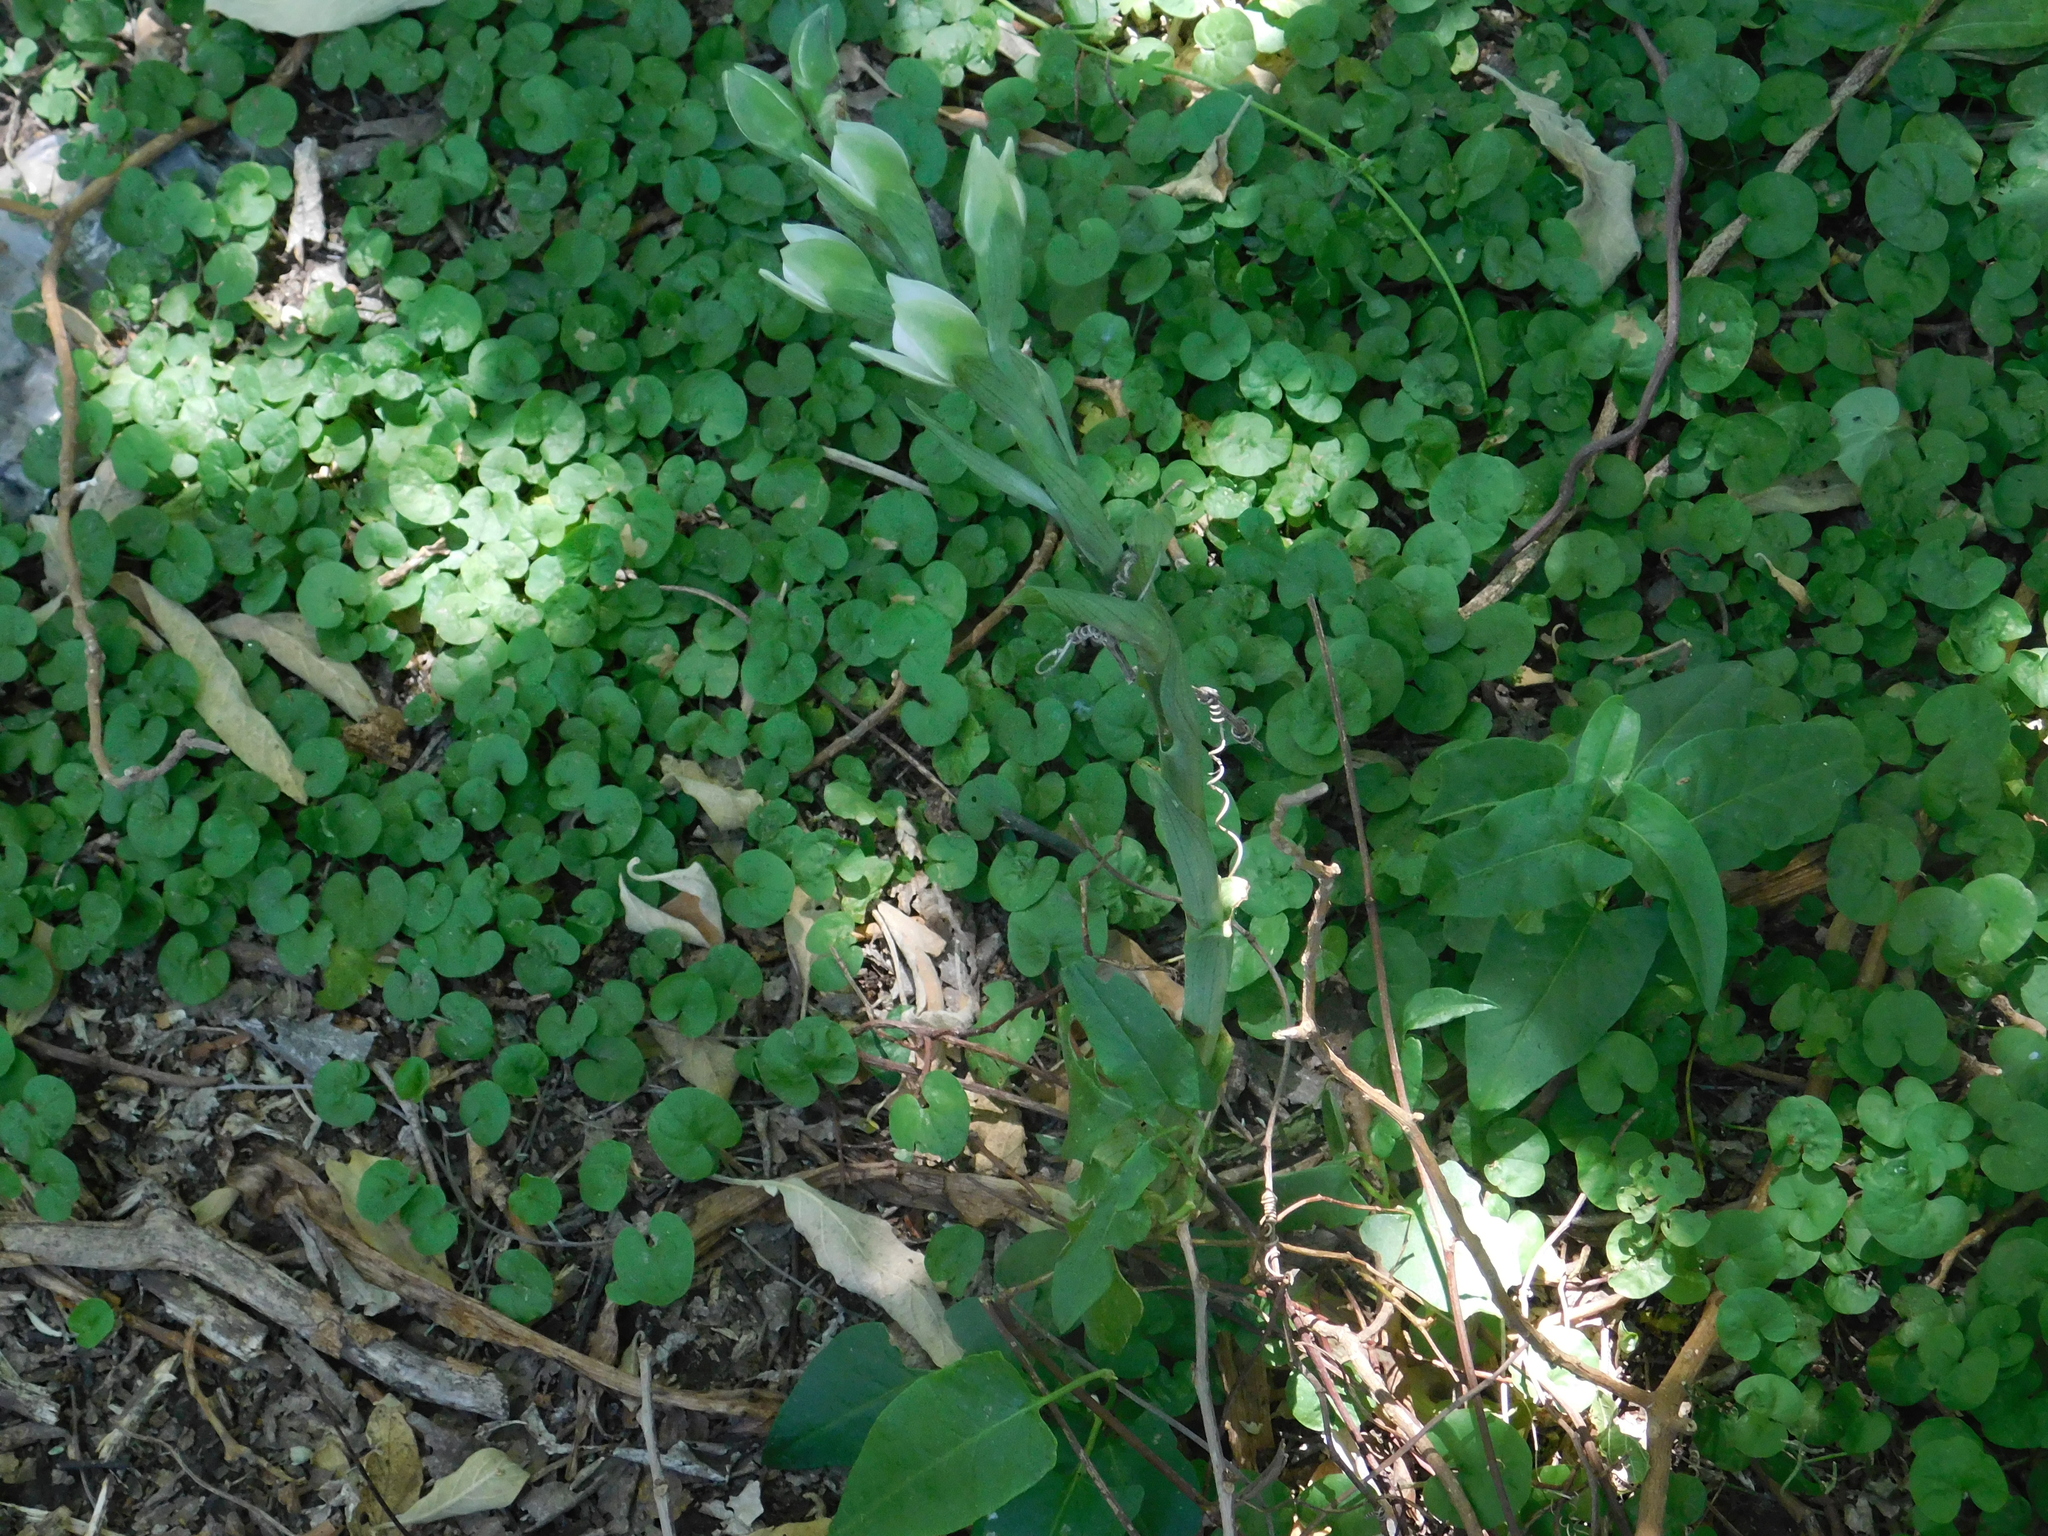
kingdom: Plantae
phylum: Tracheophyta
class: Liliopsida
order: Asparagales
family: Orchidaceae
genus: Chloraea
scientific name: Chloraea membranacea
